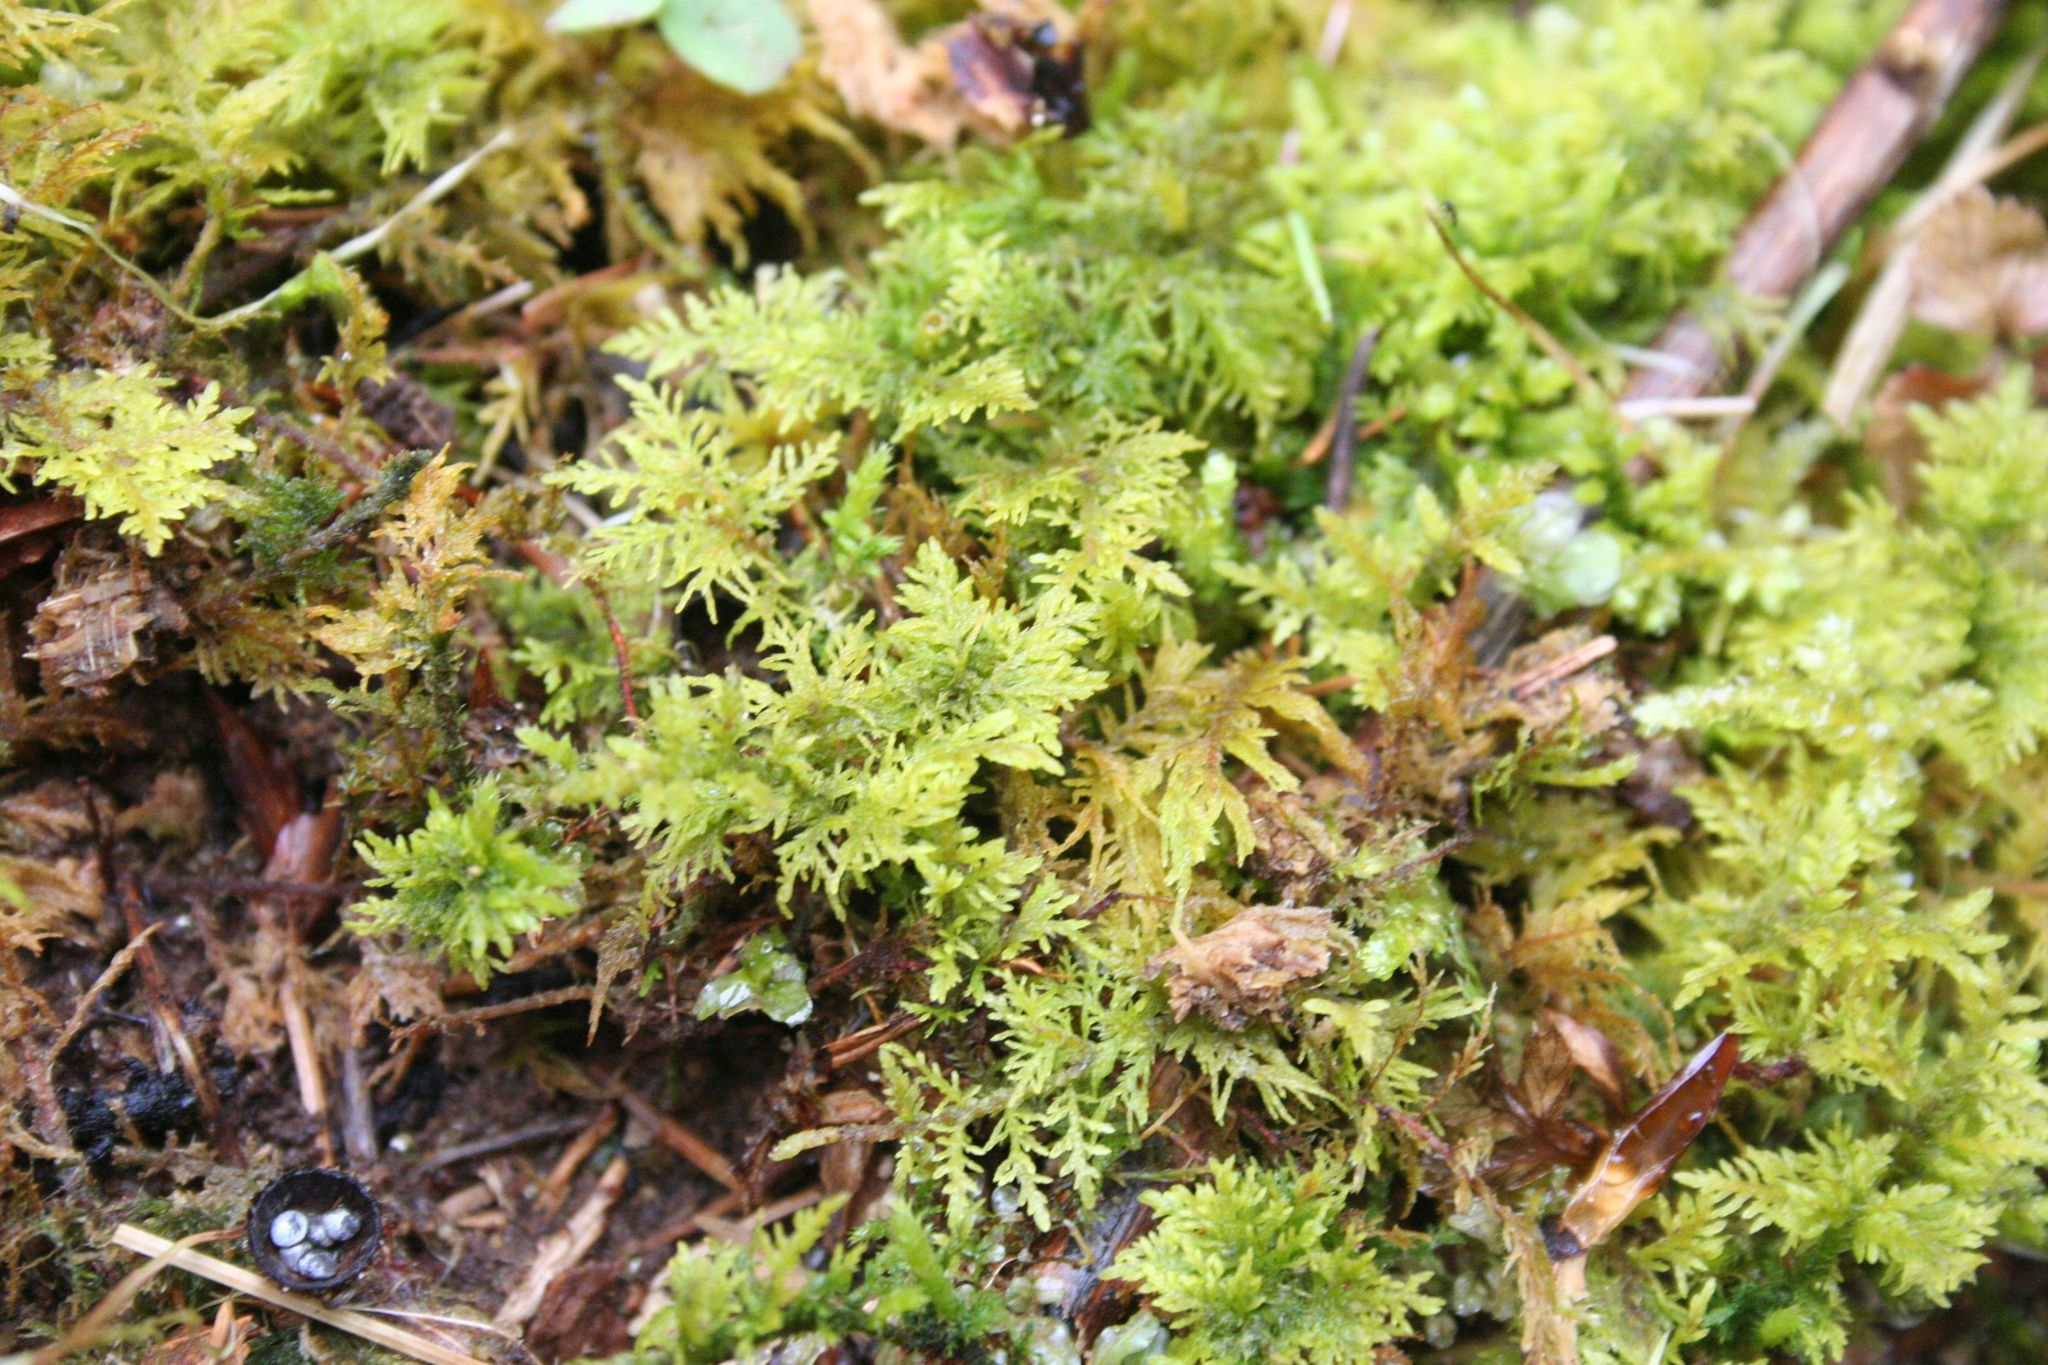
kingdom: Plantae
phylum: Bryophyta
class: Bryopsida
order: Hypnales
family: Thuidiaceae
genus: Thuidium
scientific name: Thuidium tamariscinum
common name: Common tamarisk-moss
